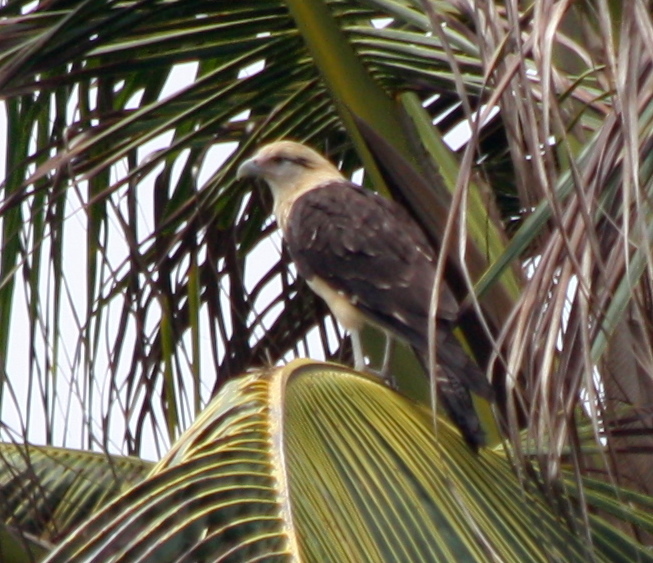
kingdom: Animalia
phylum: Chordata
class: Aves
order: Falconiformes
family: Falconidae
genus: Daptrius
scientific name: Daptrius
